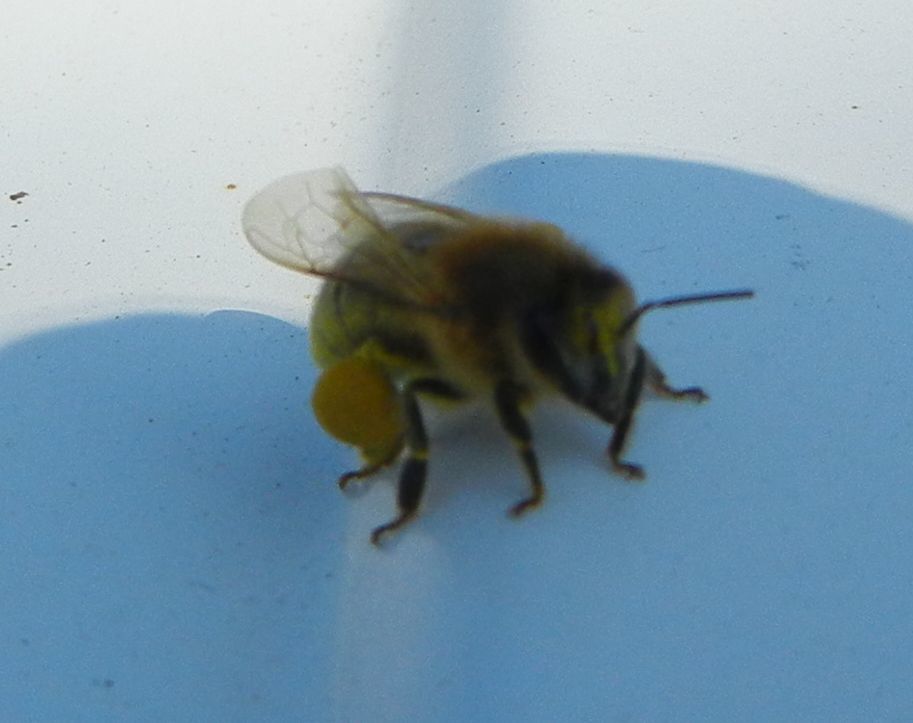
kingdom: Animalia
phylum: Arthropoda
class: Insecta
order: Hymenoptera
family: Apidae
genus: Apis
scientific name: Apis mellifera
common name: Honey bee
